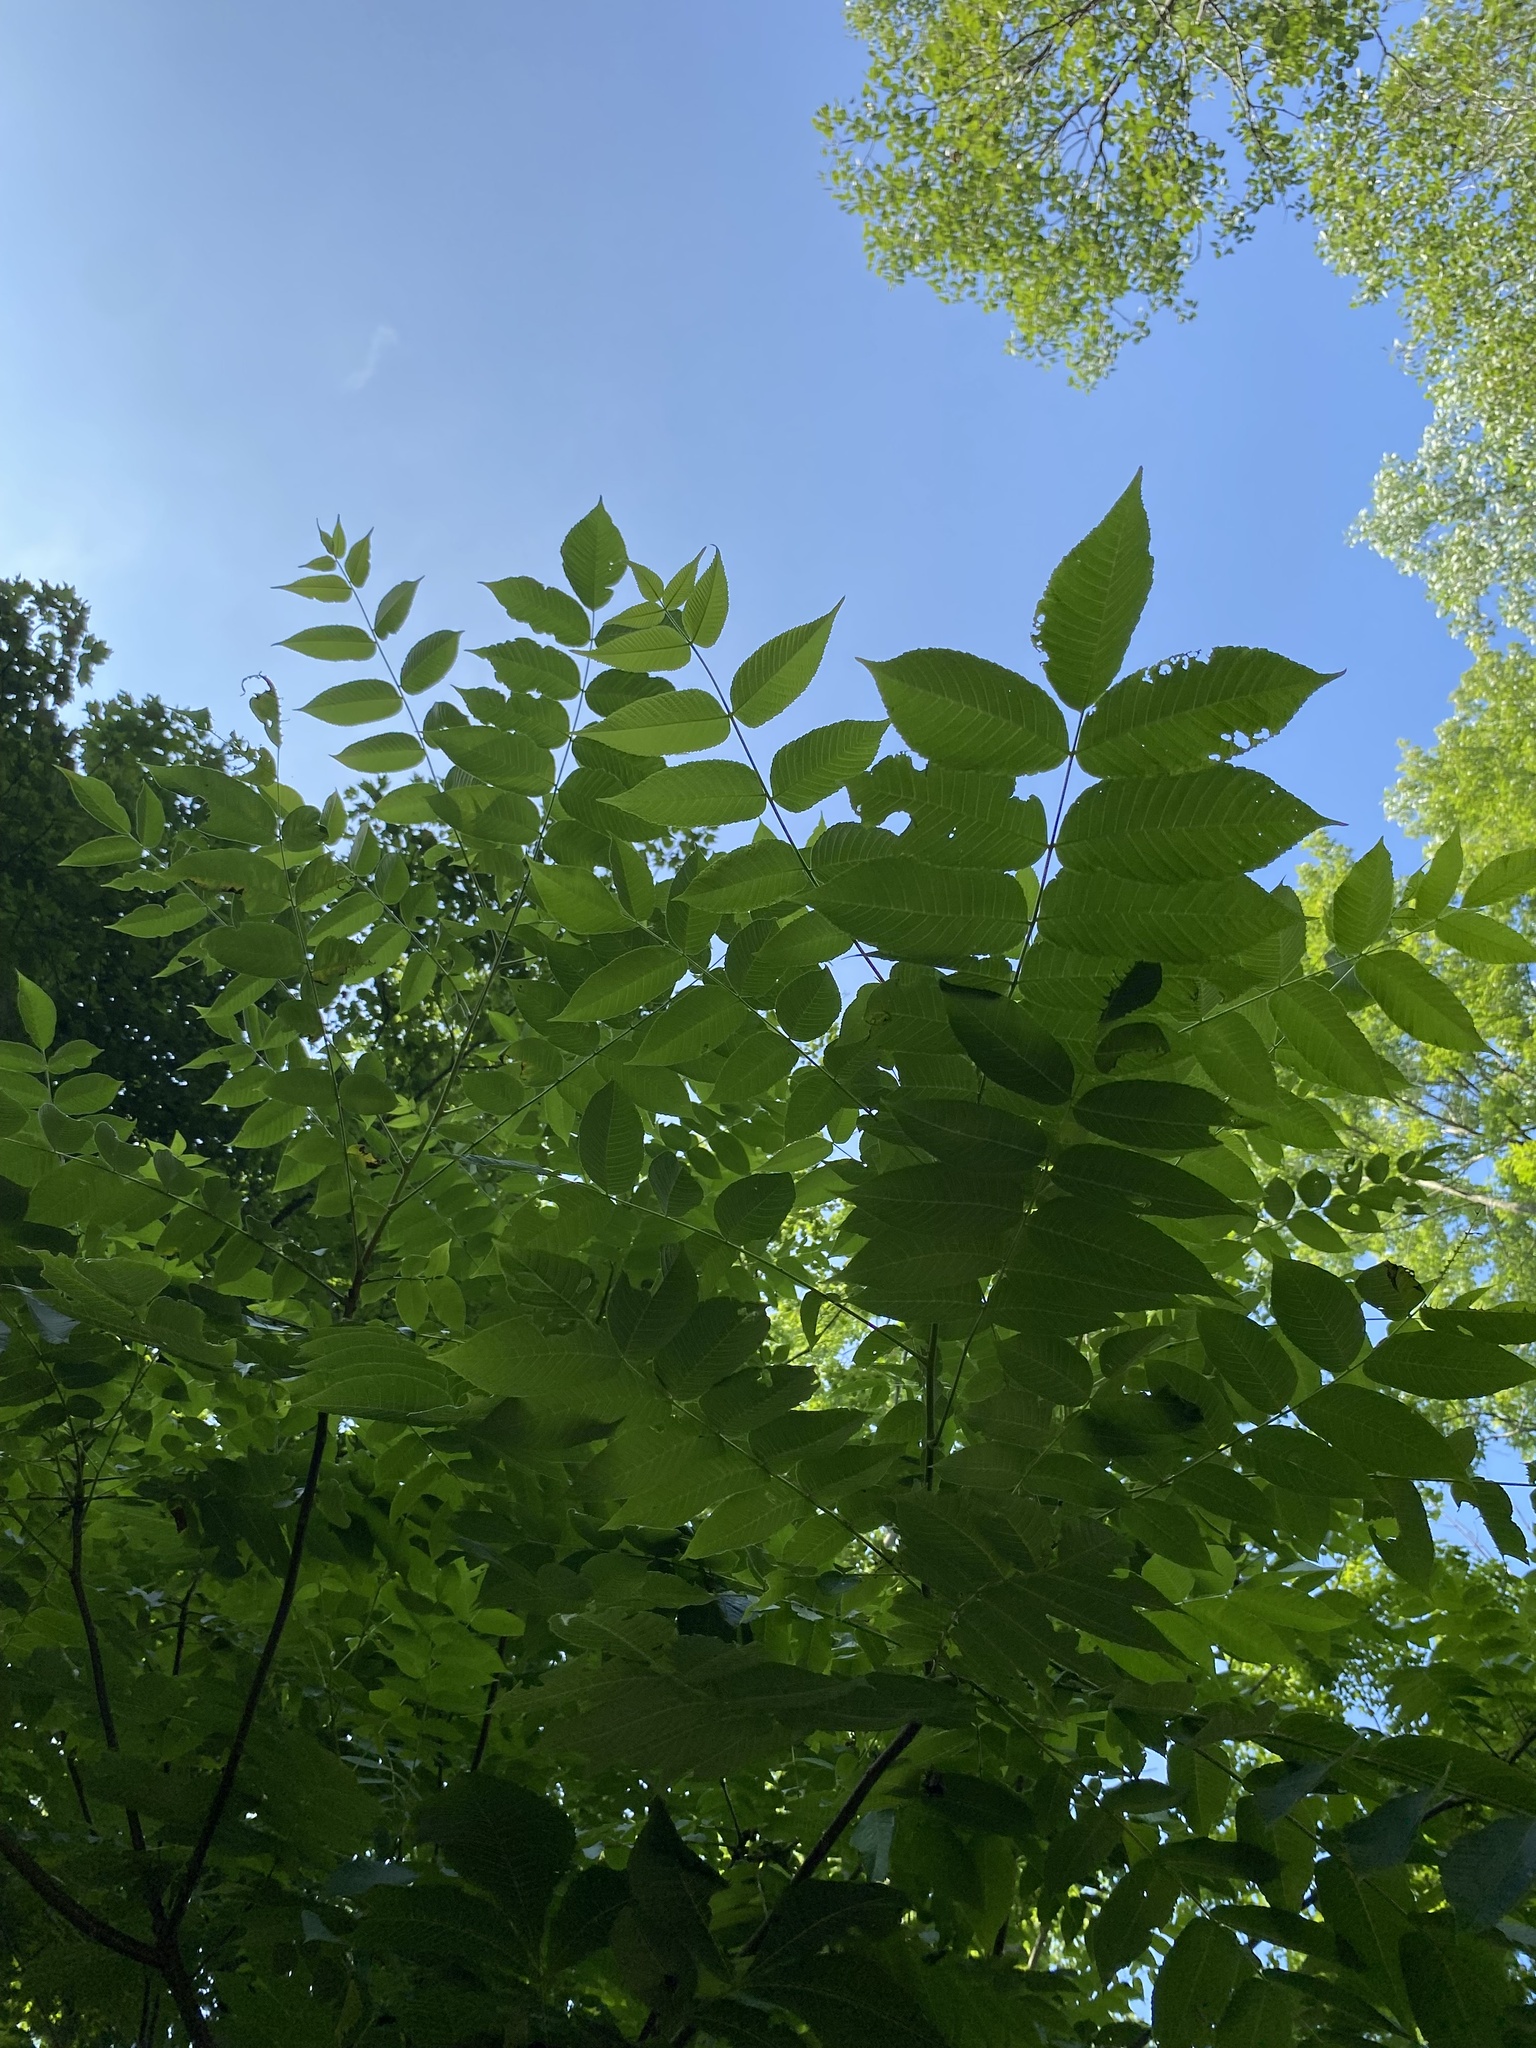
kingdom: Plantae
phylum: Tracheophyta
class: Magnoliopsida
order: Fagales
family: Juglandaceae
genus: Juglans
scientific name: Juglans cinerea
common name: Butternut
